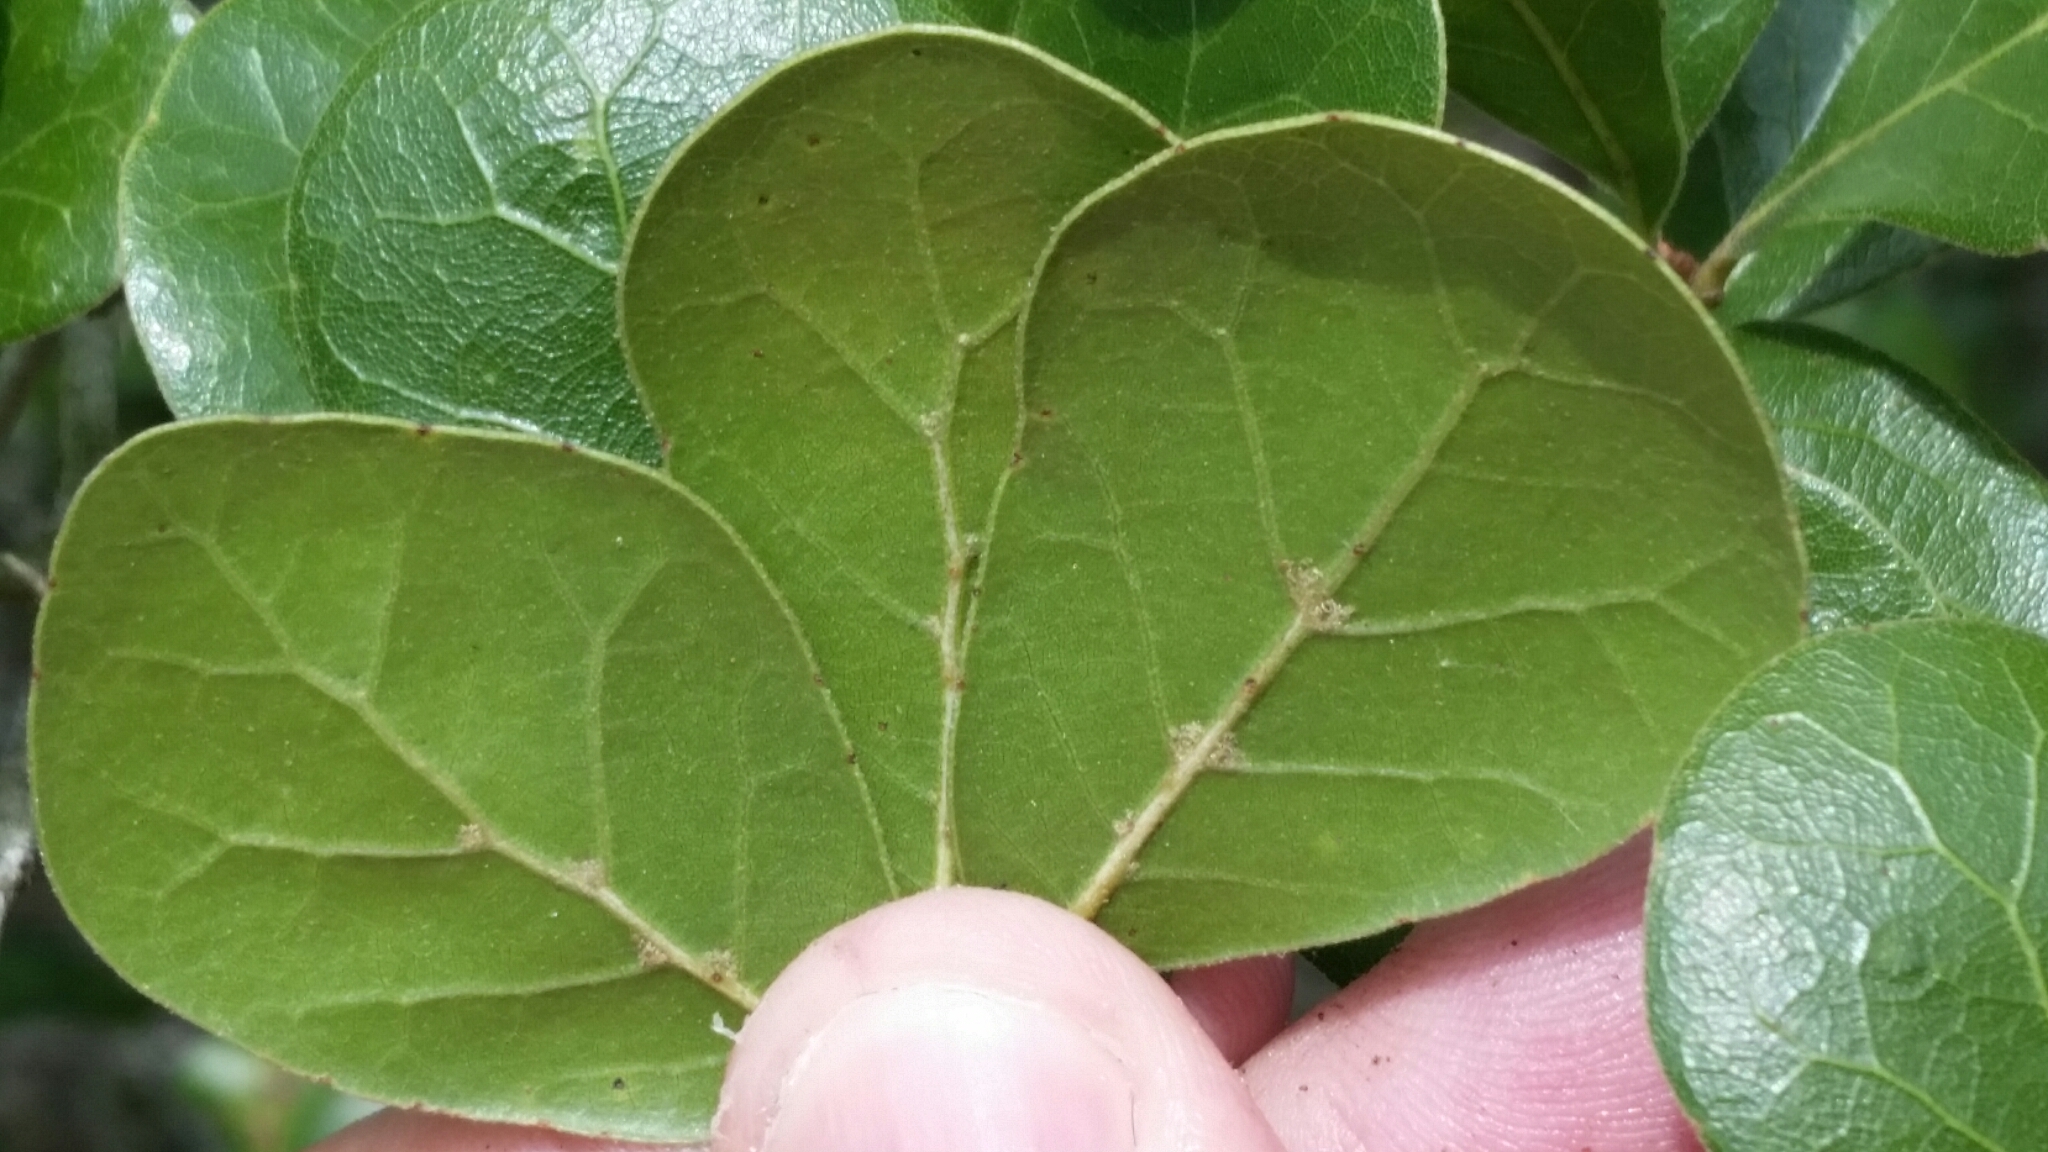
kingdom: Plantae
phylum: Tracheophyta
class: Magnoliopsida
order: Fagales
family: Fagaceae
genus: Quercus
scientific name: Quercus myrtifolia
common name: Myrtle oak
